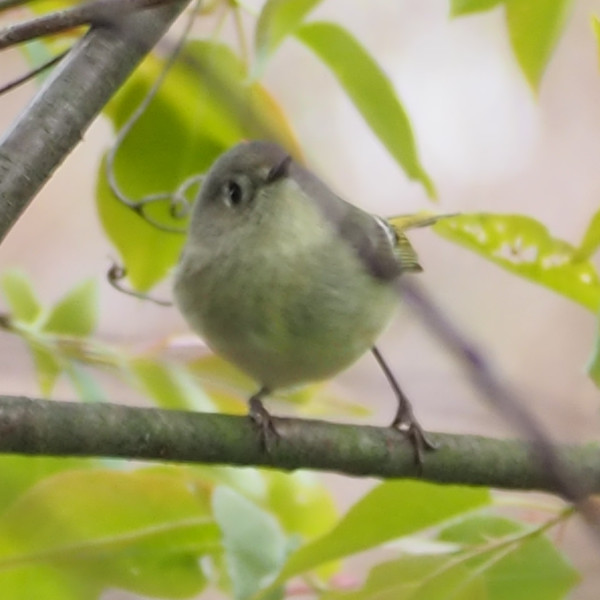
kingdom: Animalia
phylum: Chordata
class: Aves
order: Passeriformes
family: Regulidae
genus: Regulus
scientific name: Regulus calendula
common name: Ruby-crowned kinglet
